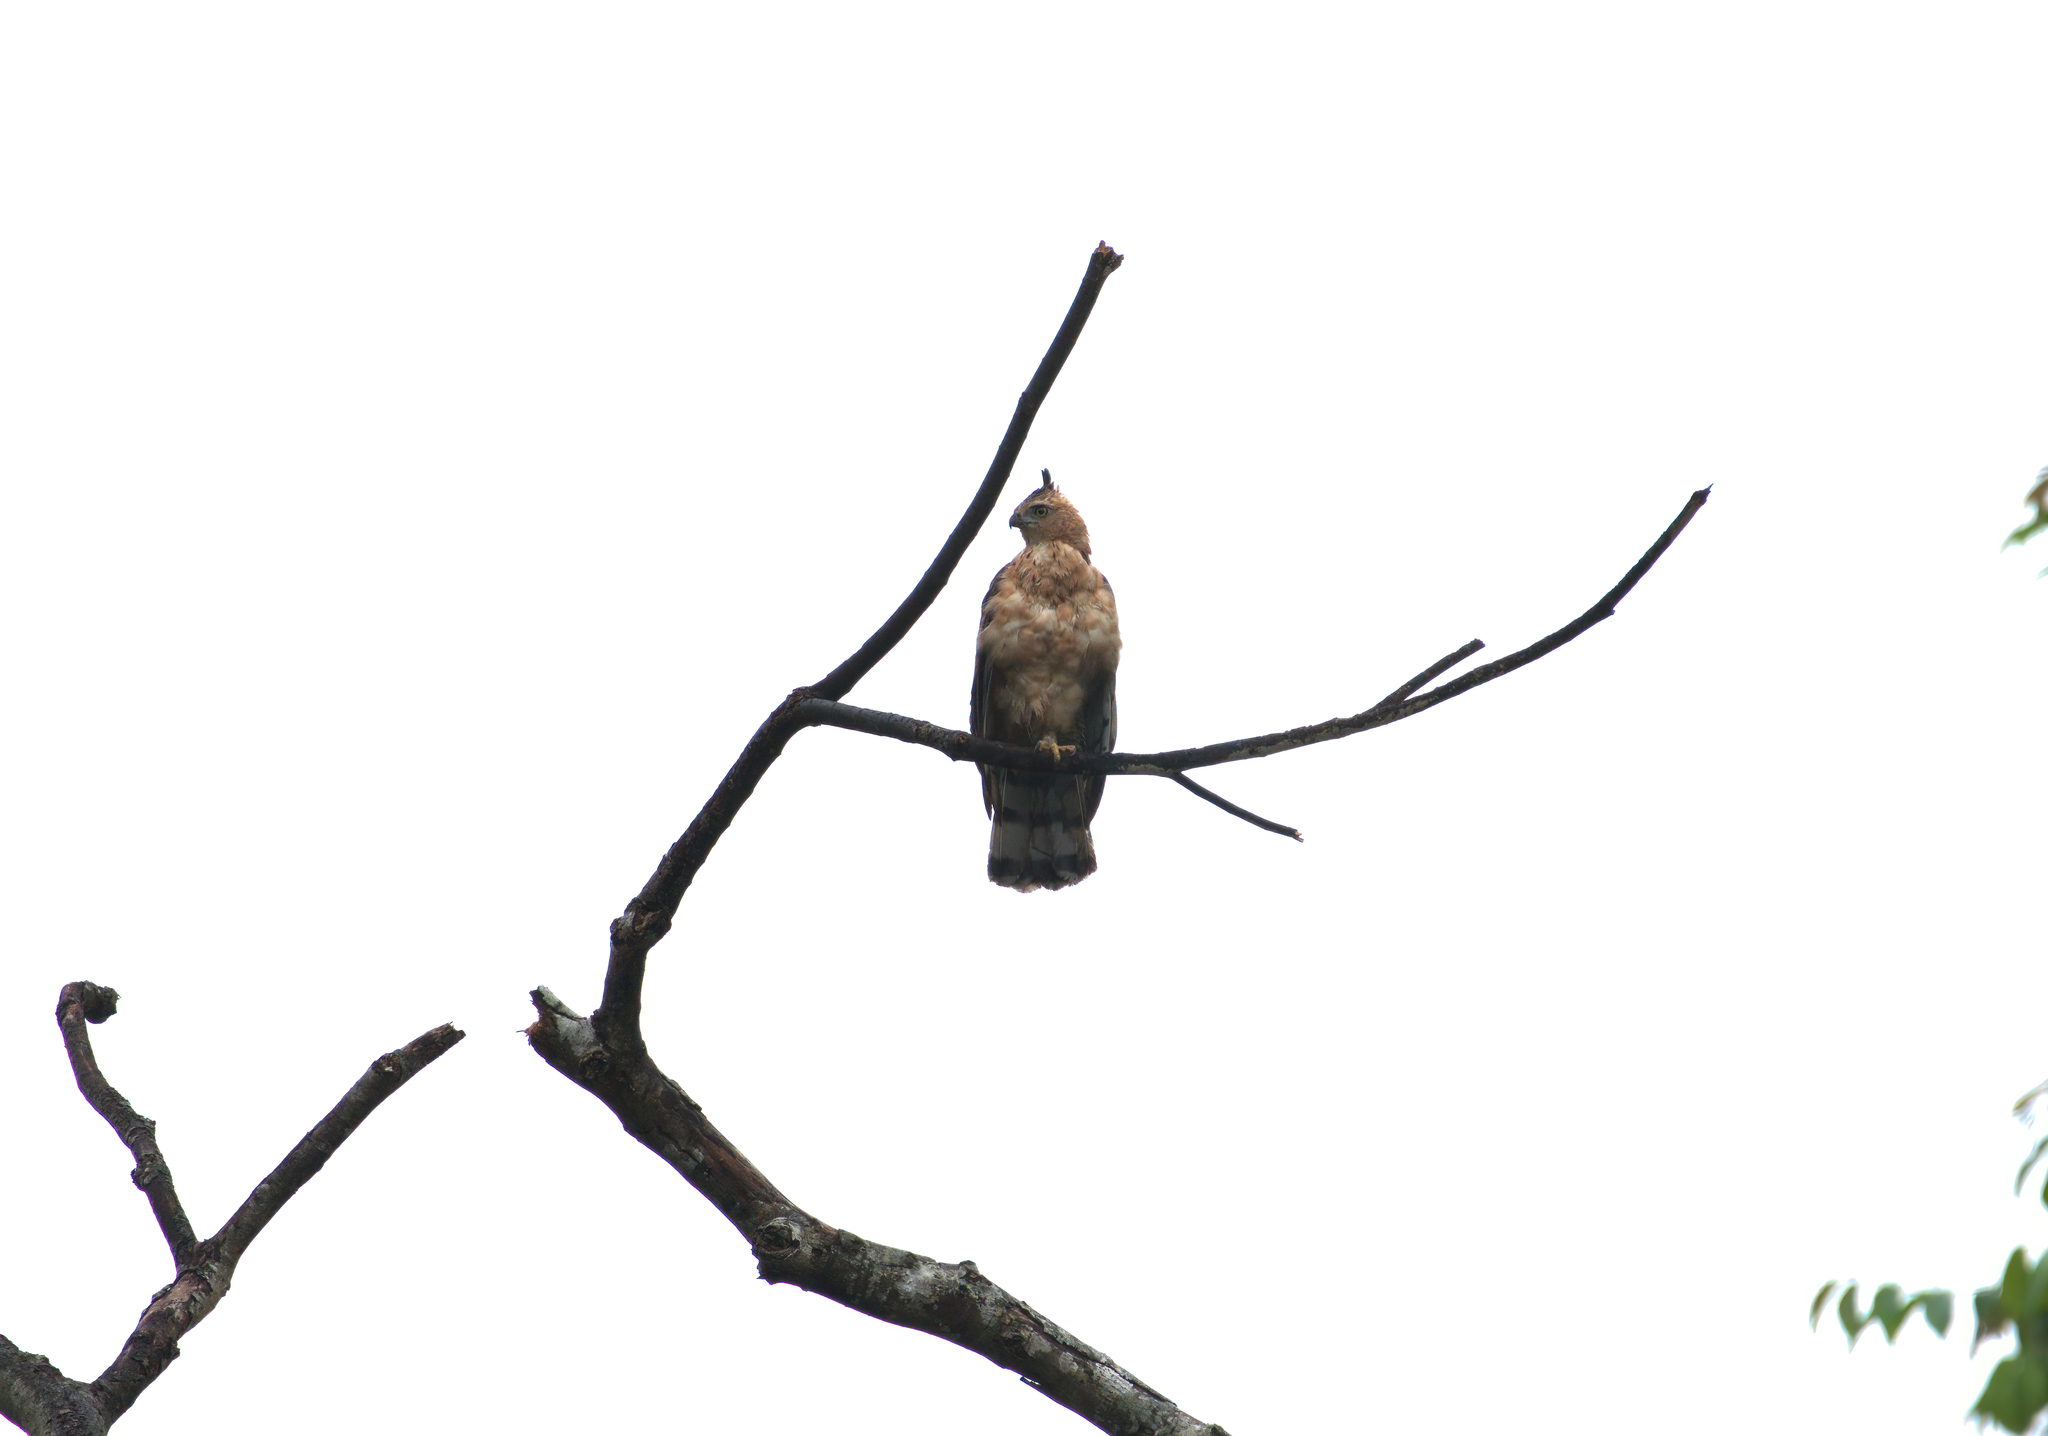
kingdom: Animalia
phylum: Chordata
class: Aves
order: Accipitriformes
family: Accipitridae
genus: Nisaetus
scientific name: Nisaetus nanus
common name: Wallace's hawk-eagle
